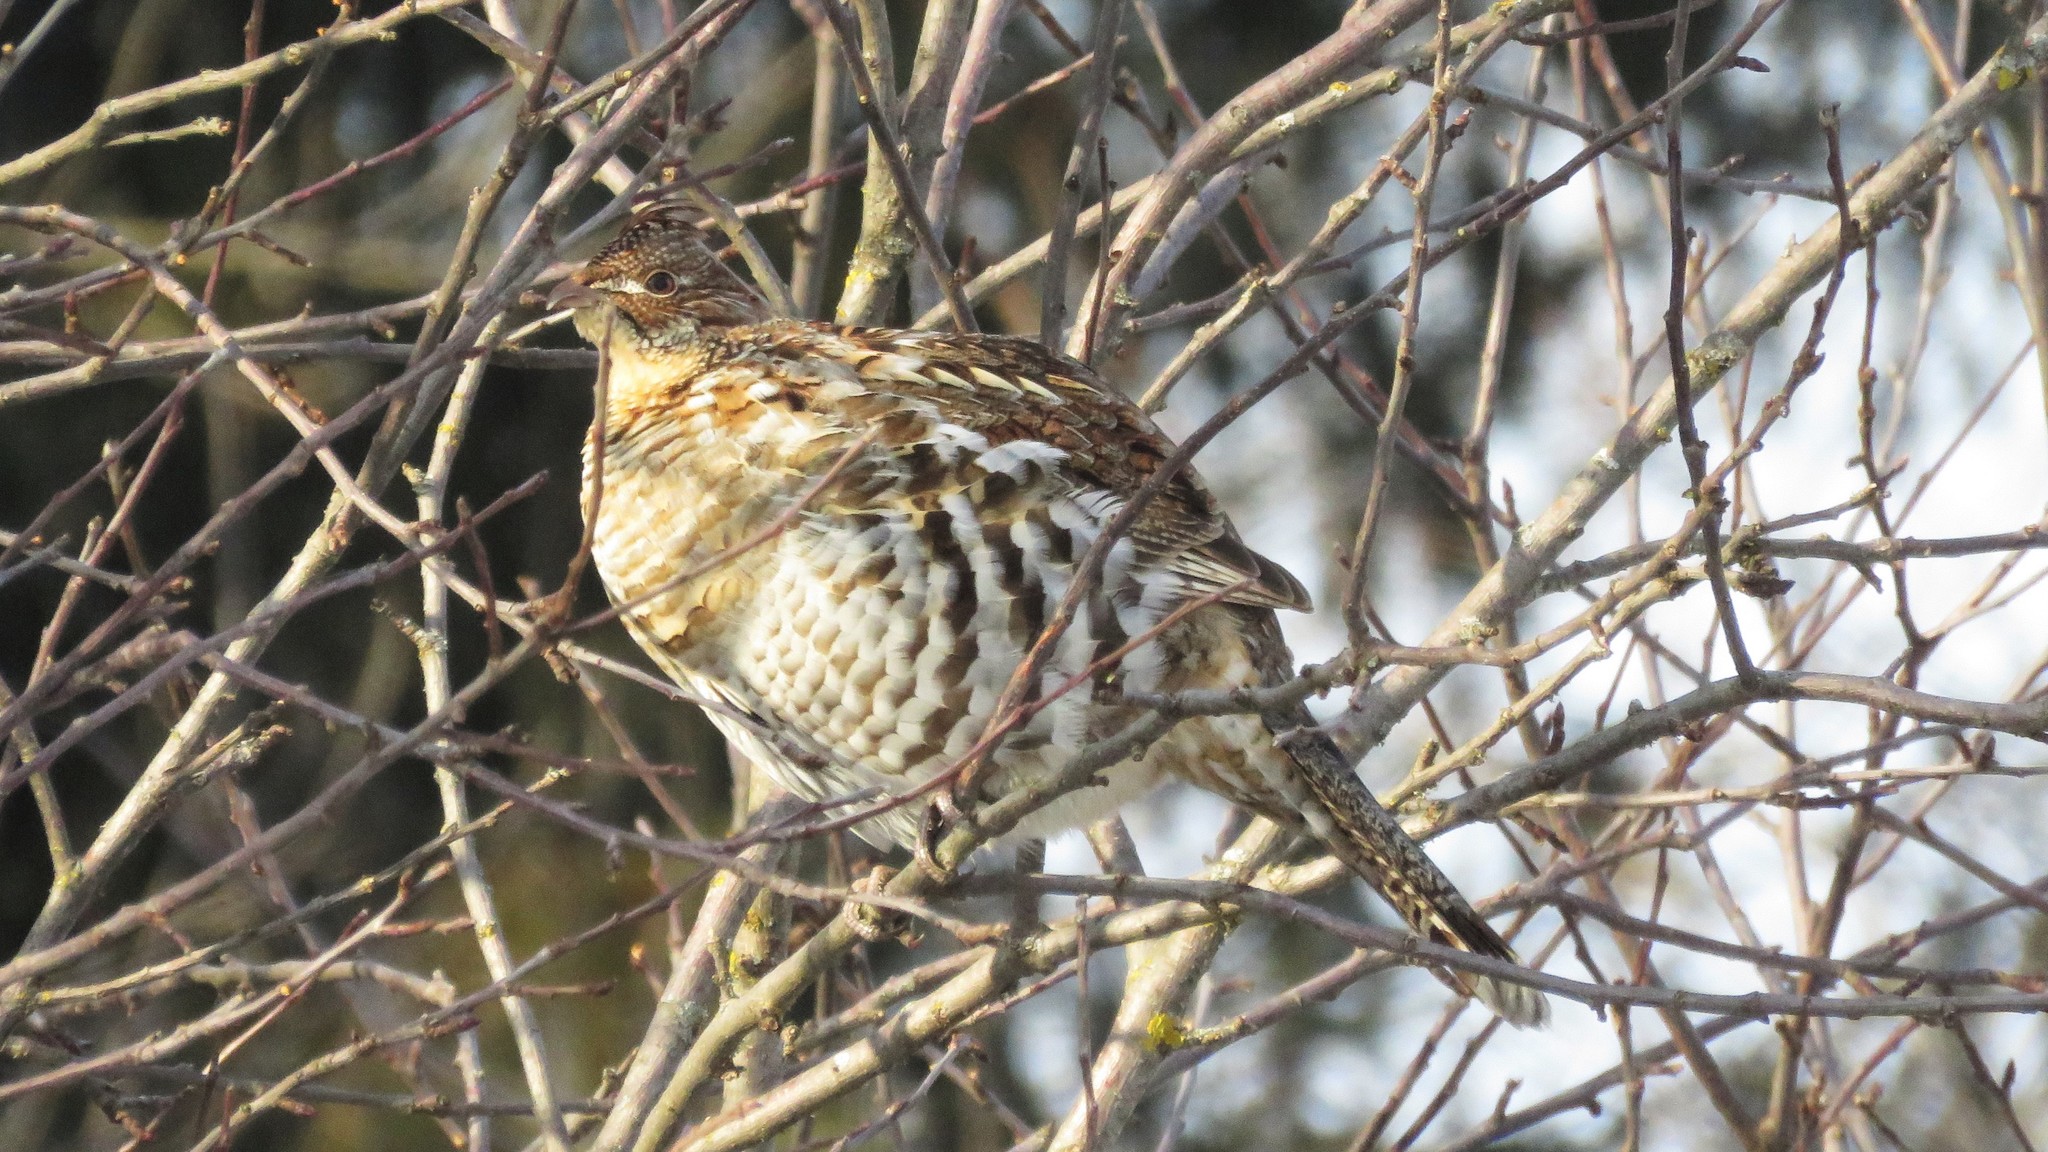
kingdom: Animalia
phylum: Chordata
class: Aves
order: Galliformes
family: Phasianidae
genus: Bonasa
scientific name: Bonasa umbellus
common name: Ruffed grouse
